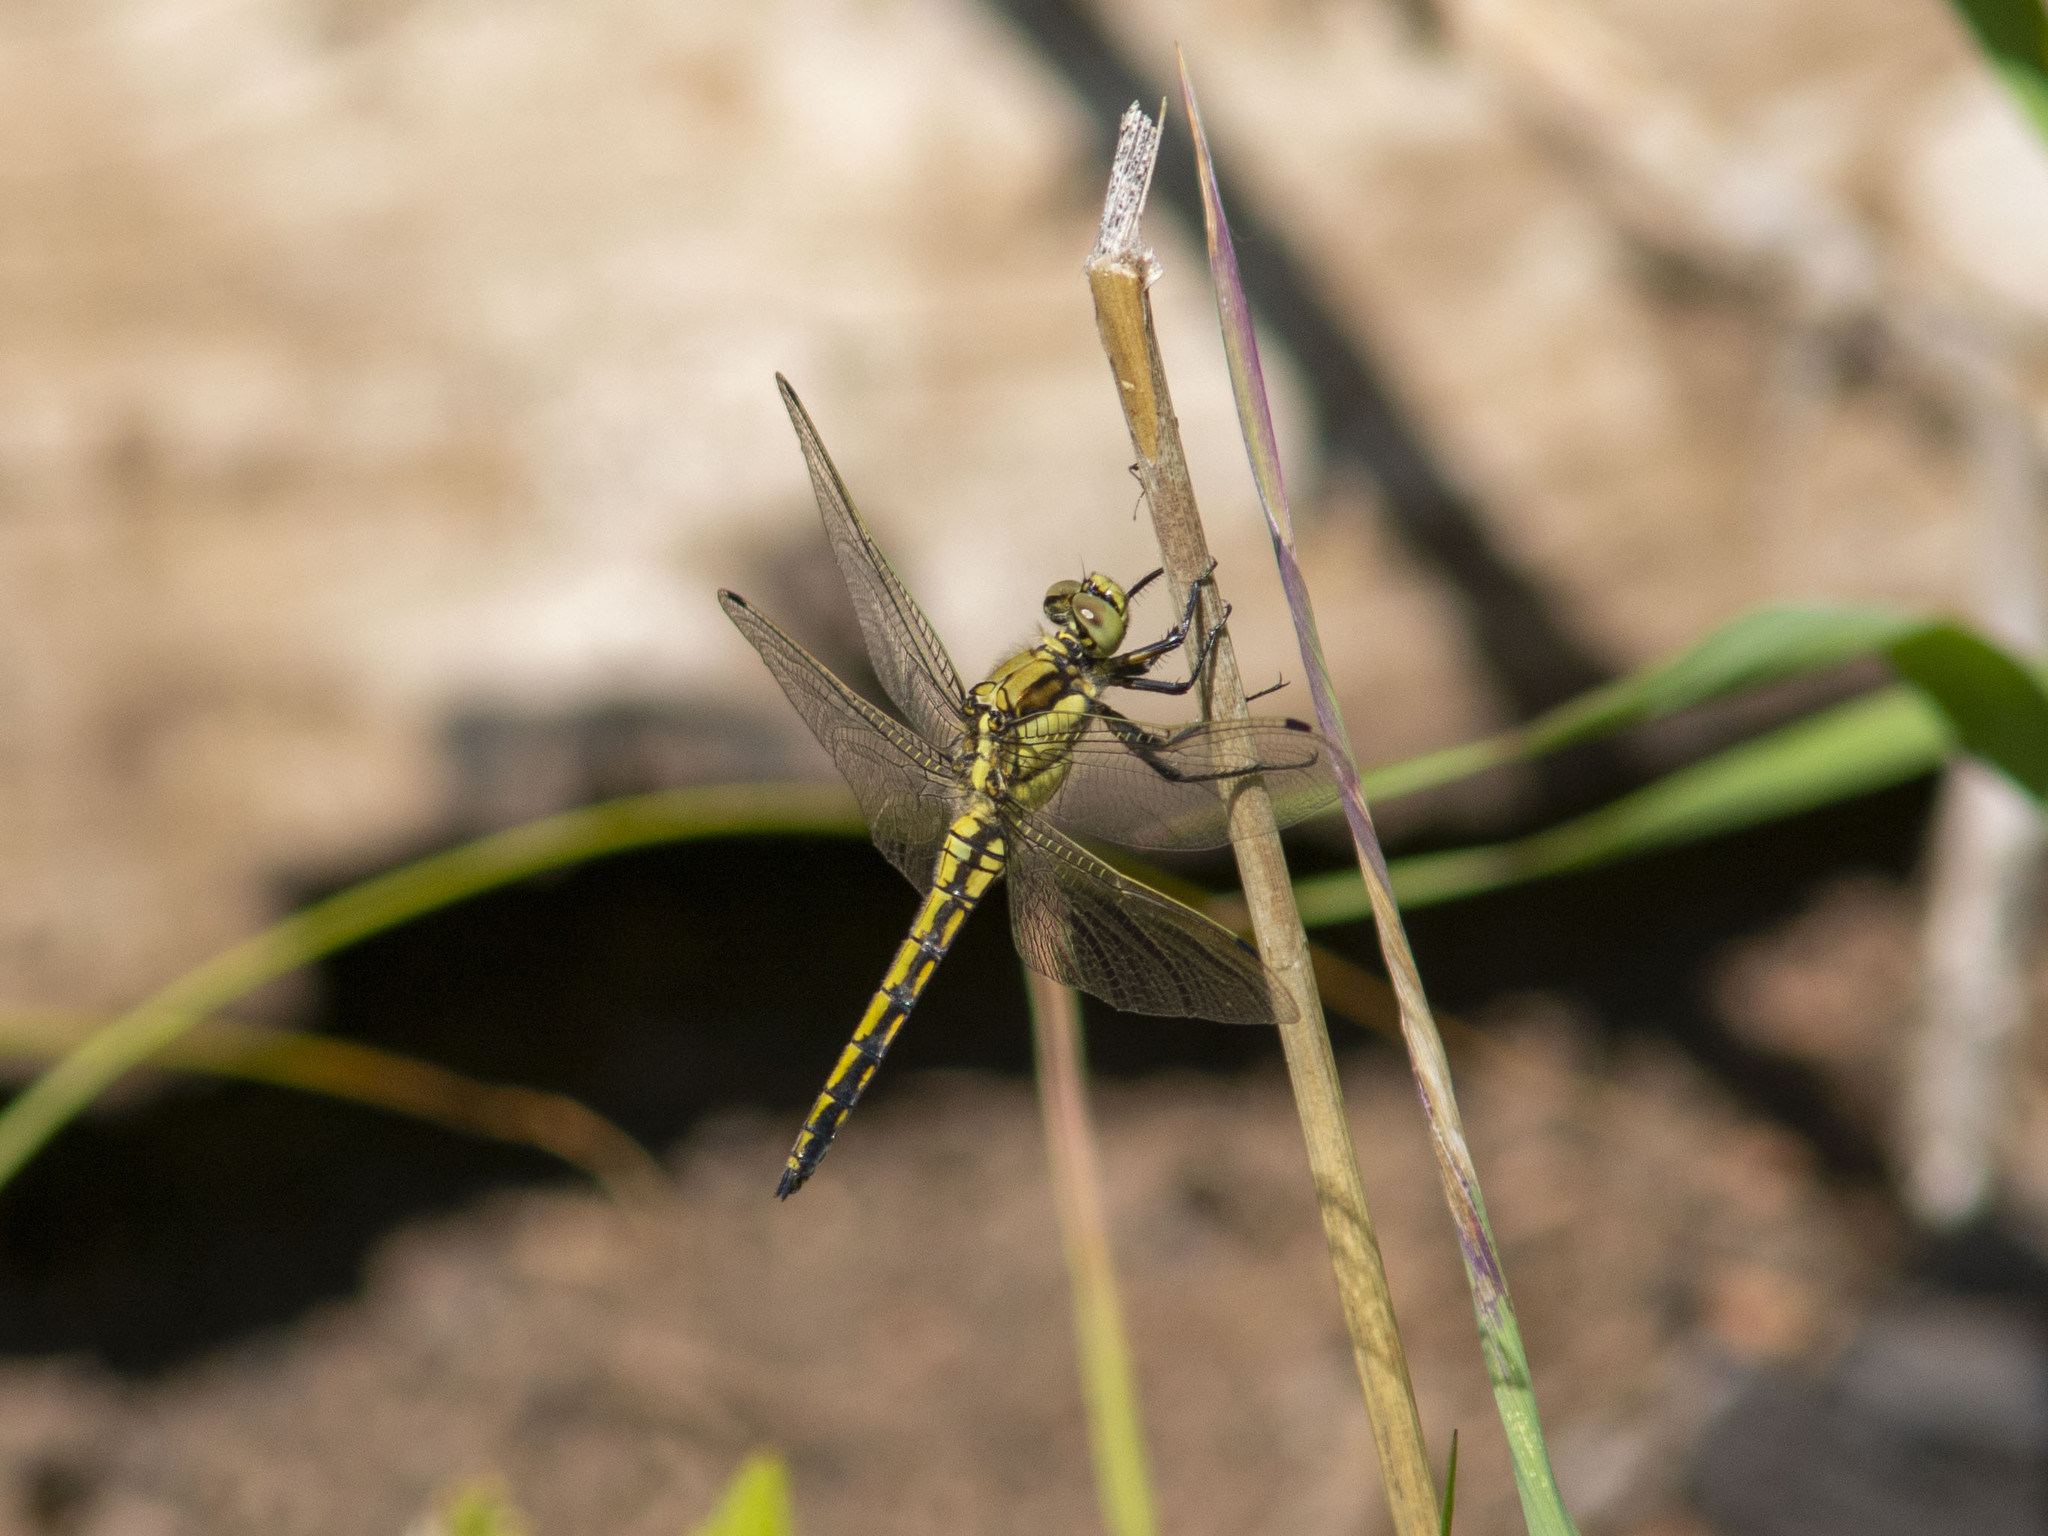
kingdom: Animalia
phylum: Arthropoda
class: Insecta
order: Odonata
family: Libellulidae
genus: Orthetrum
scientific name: Orthetrum cancellatum
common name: Black-tailed skimmer
